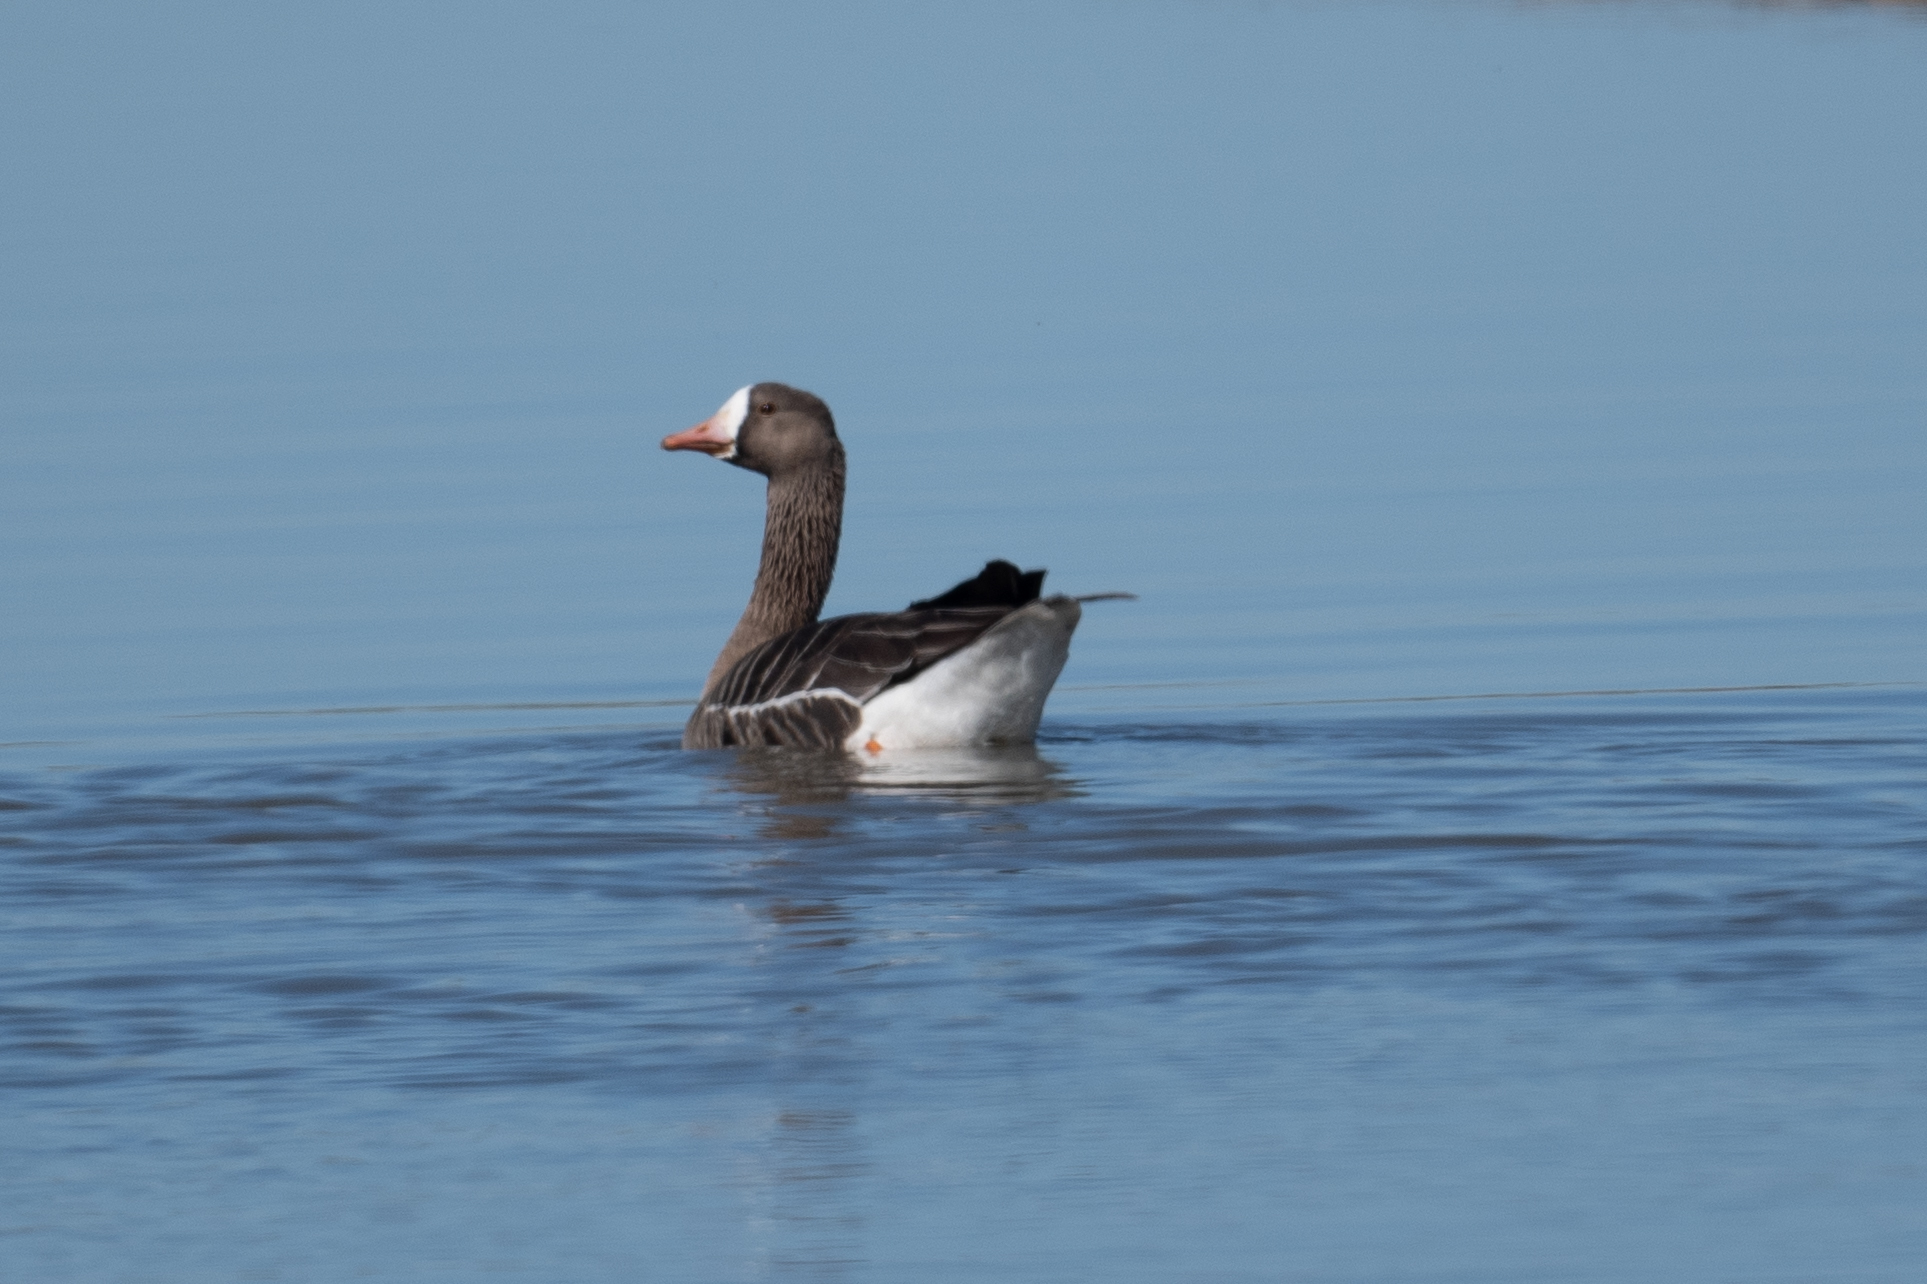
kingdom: Animalia
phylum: Chordata
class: Aves
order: Anseriformes
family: Anatidae
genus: Anser
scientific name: Anser albifrons
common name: Greater white-fronted goose
